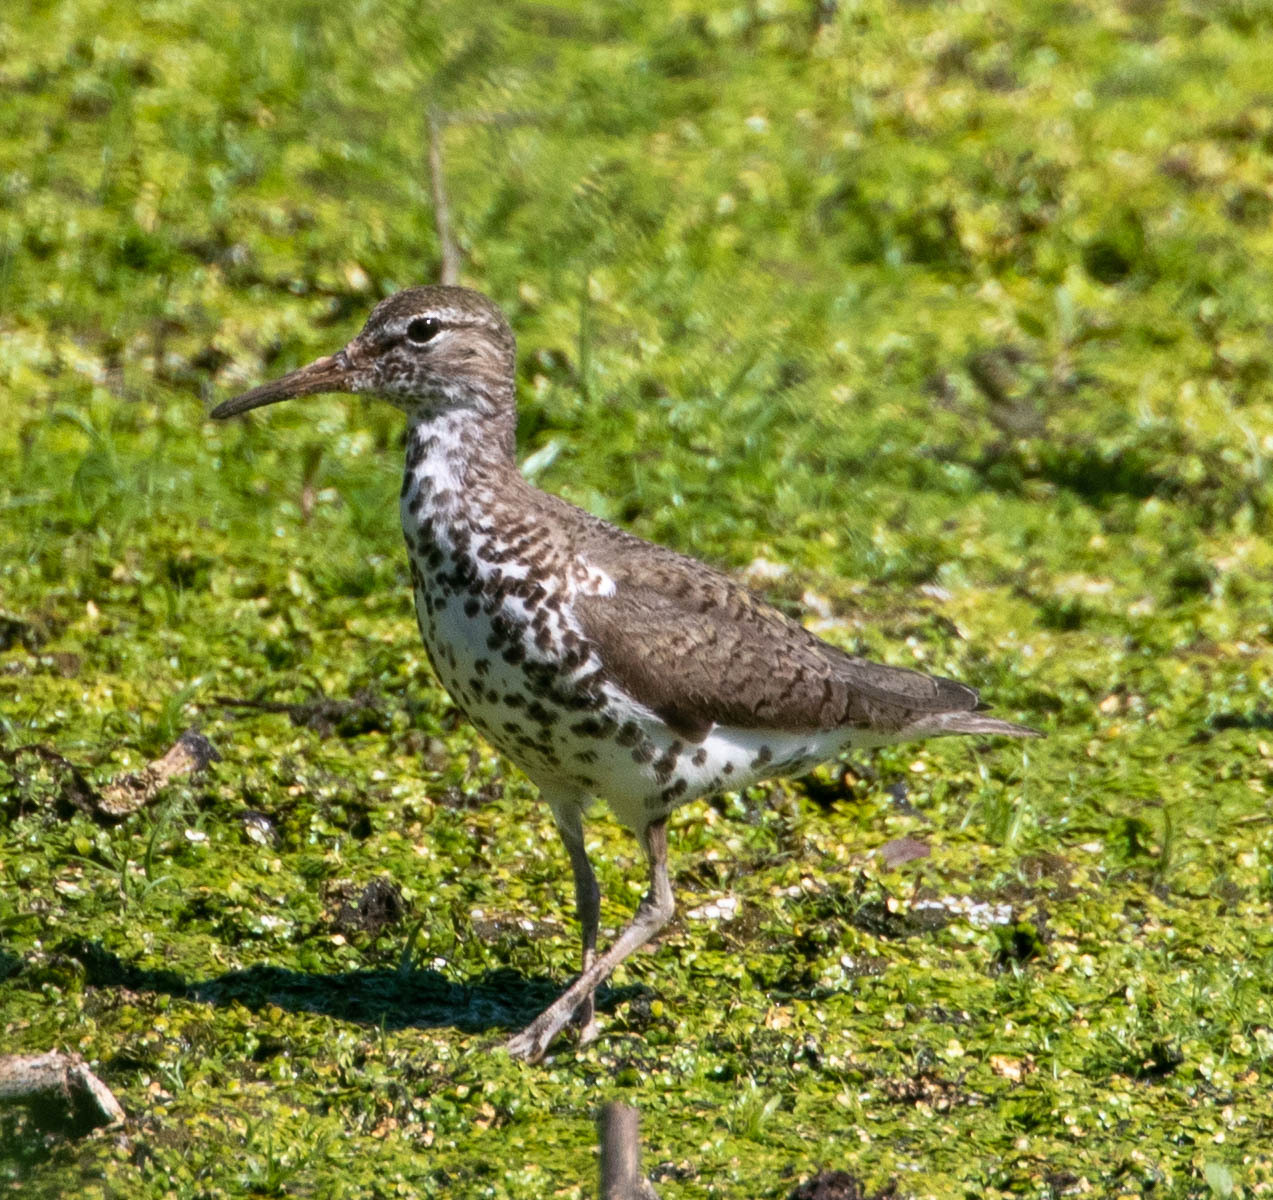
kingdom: Animalia
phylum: Chordata
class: Aves
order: Charadriiformes
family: Scolopacidae
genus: Actitis
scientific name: Actitis macularius
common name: Spotted sandpiper
